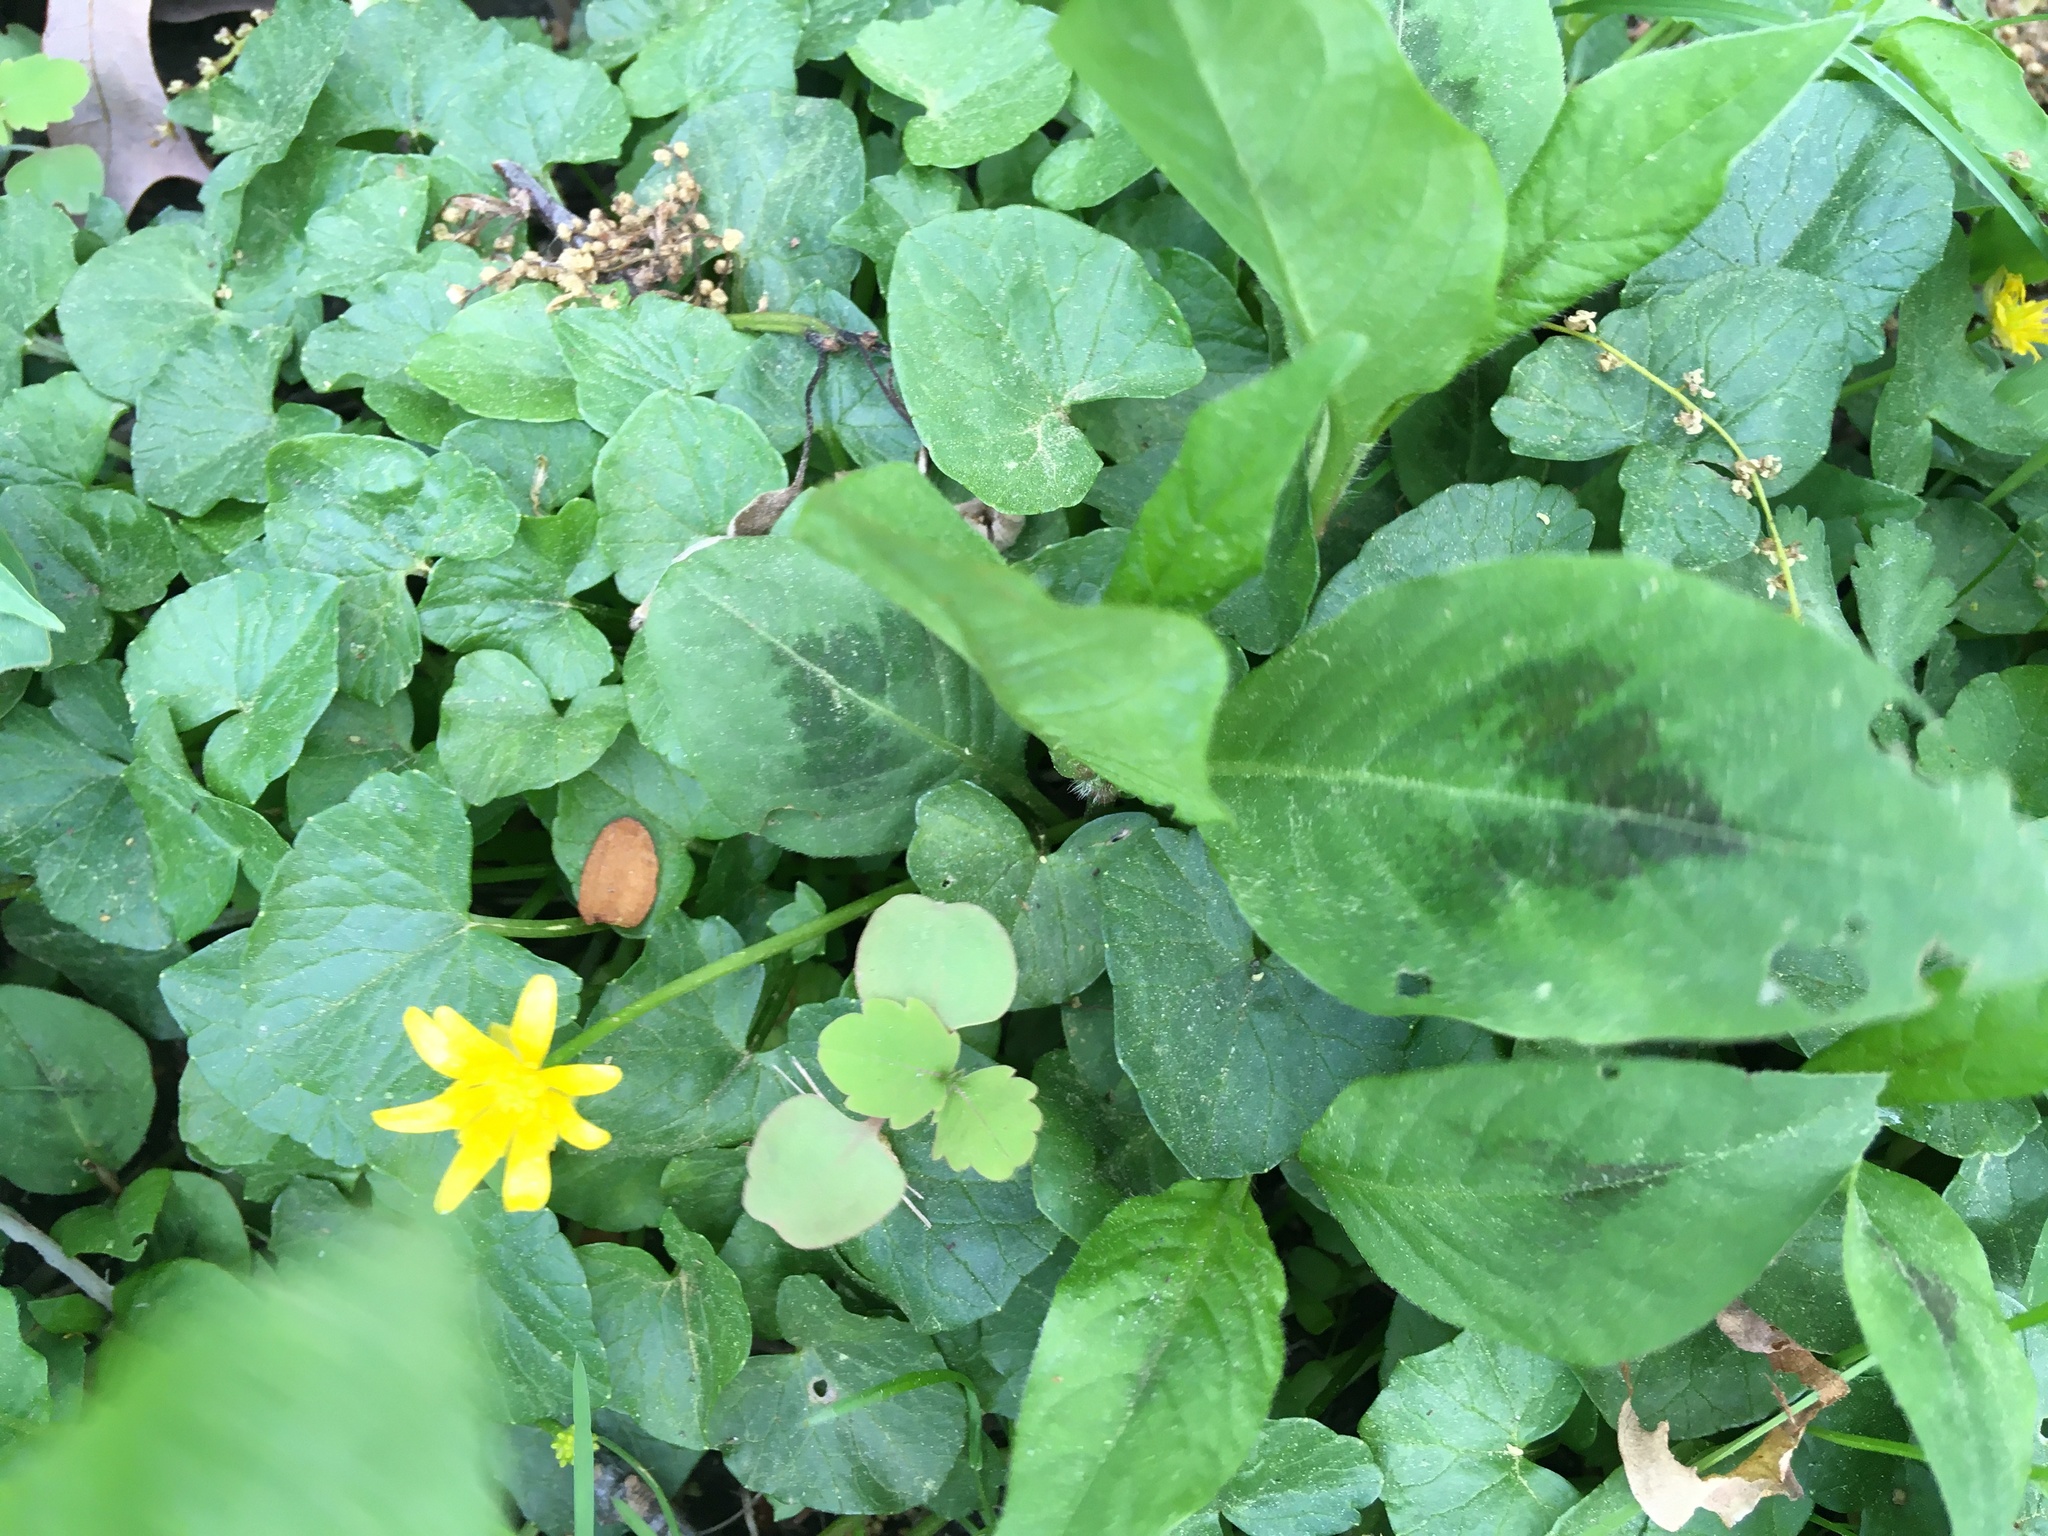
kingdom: Plantae
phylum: Tracheophyta
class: Magnoliopsida
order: Ranunculales
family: Ranunculaceae
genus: Ficaria
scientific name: Ficaria verna
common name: Lesser celandine
